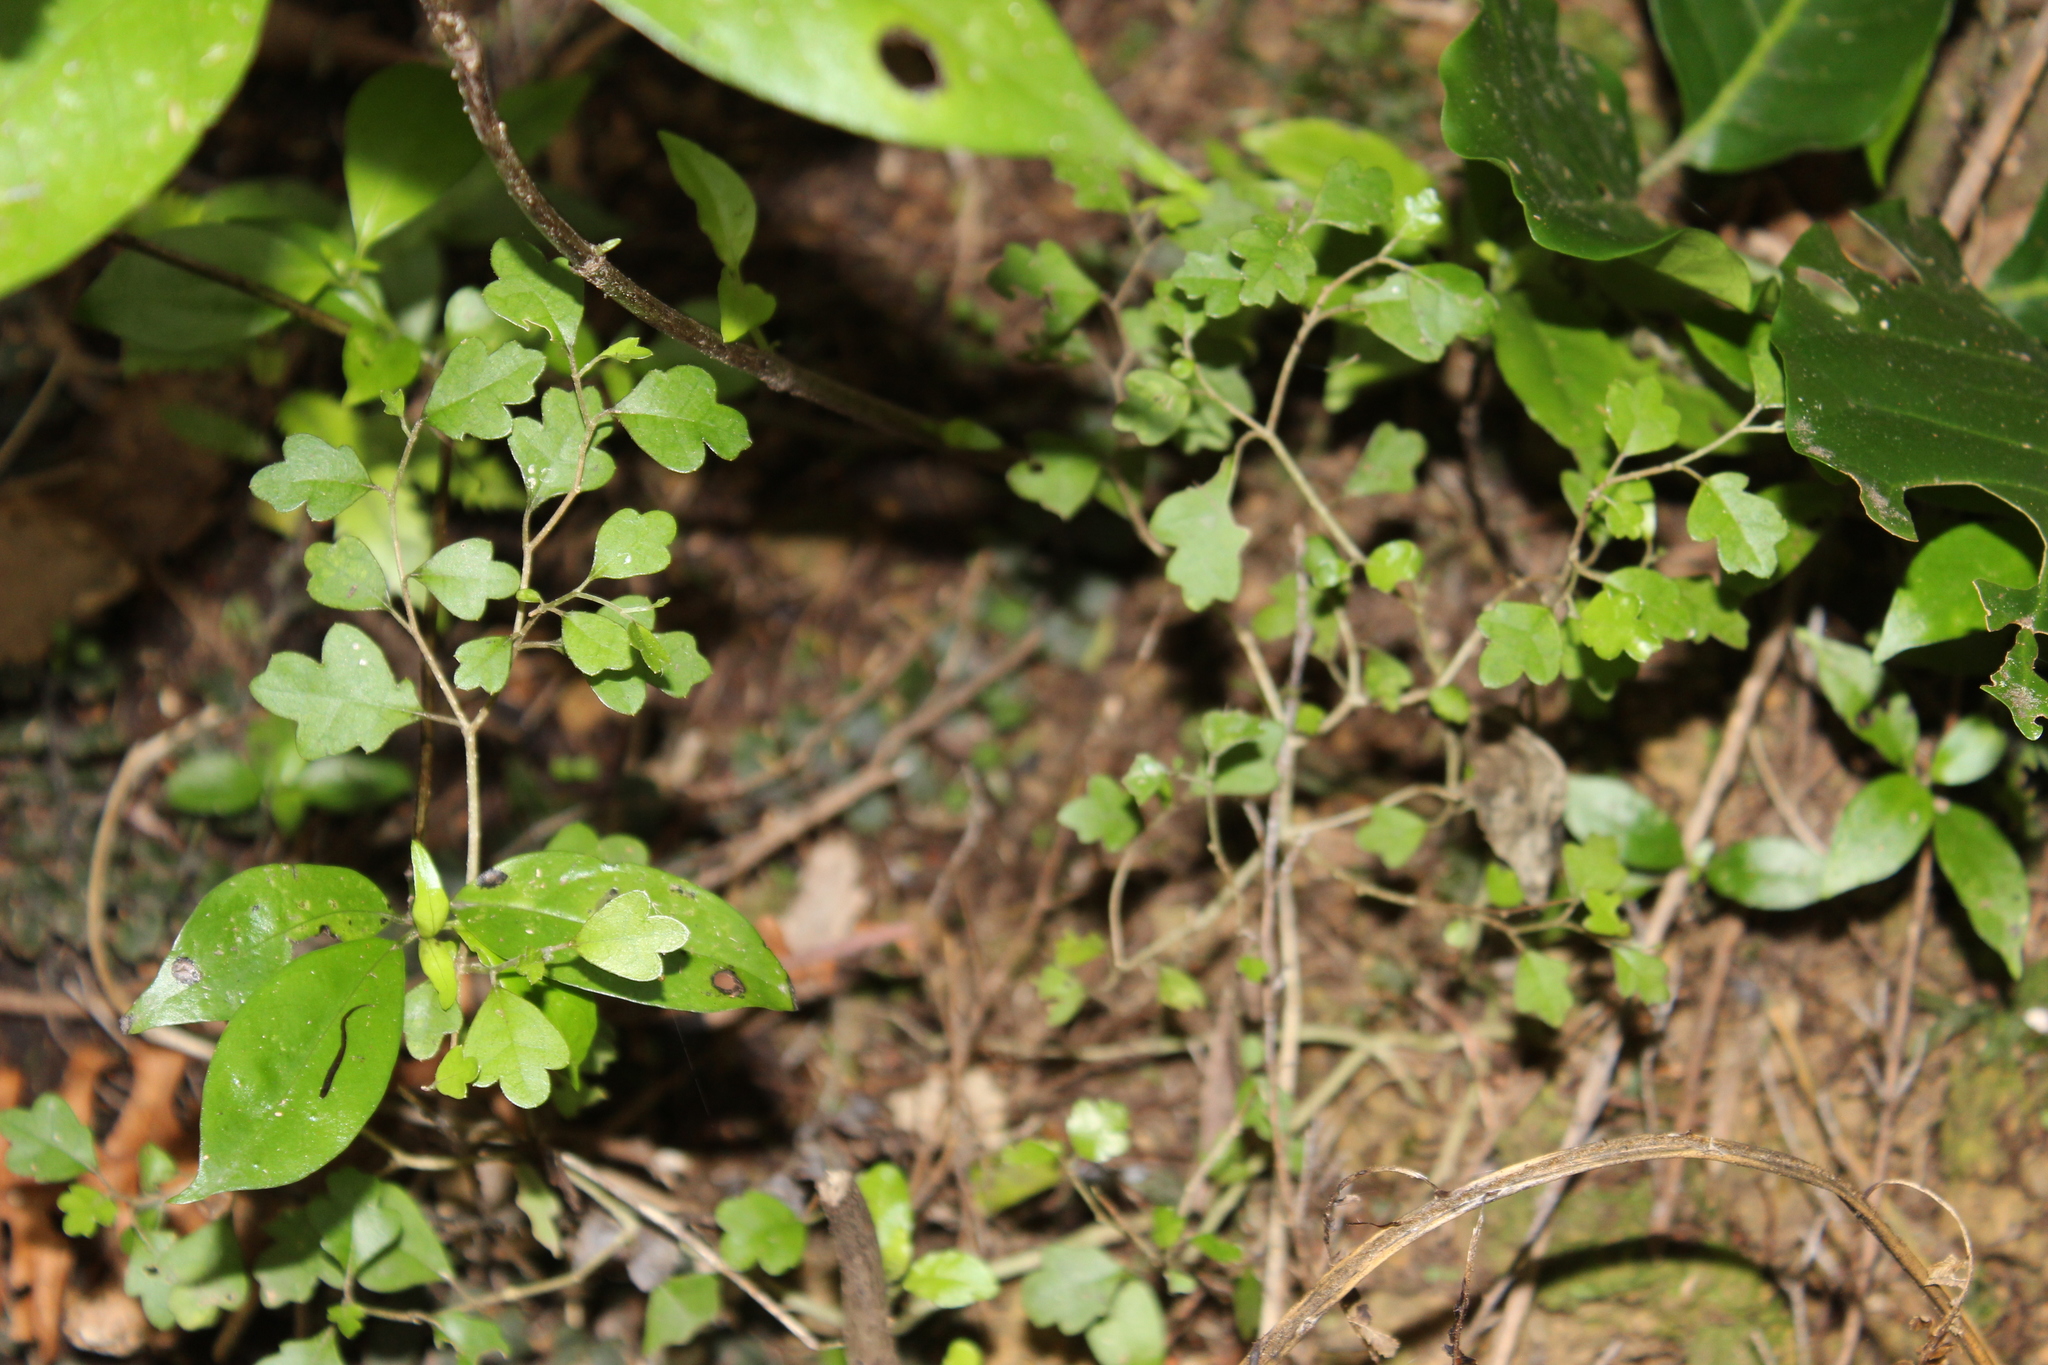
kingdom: Plantae
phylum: Tracheophyta
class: Magnoliopsida
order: Apiales
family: Pennantiaceae
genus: Pennantia
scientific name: Pennantia corymbosa
